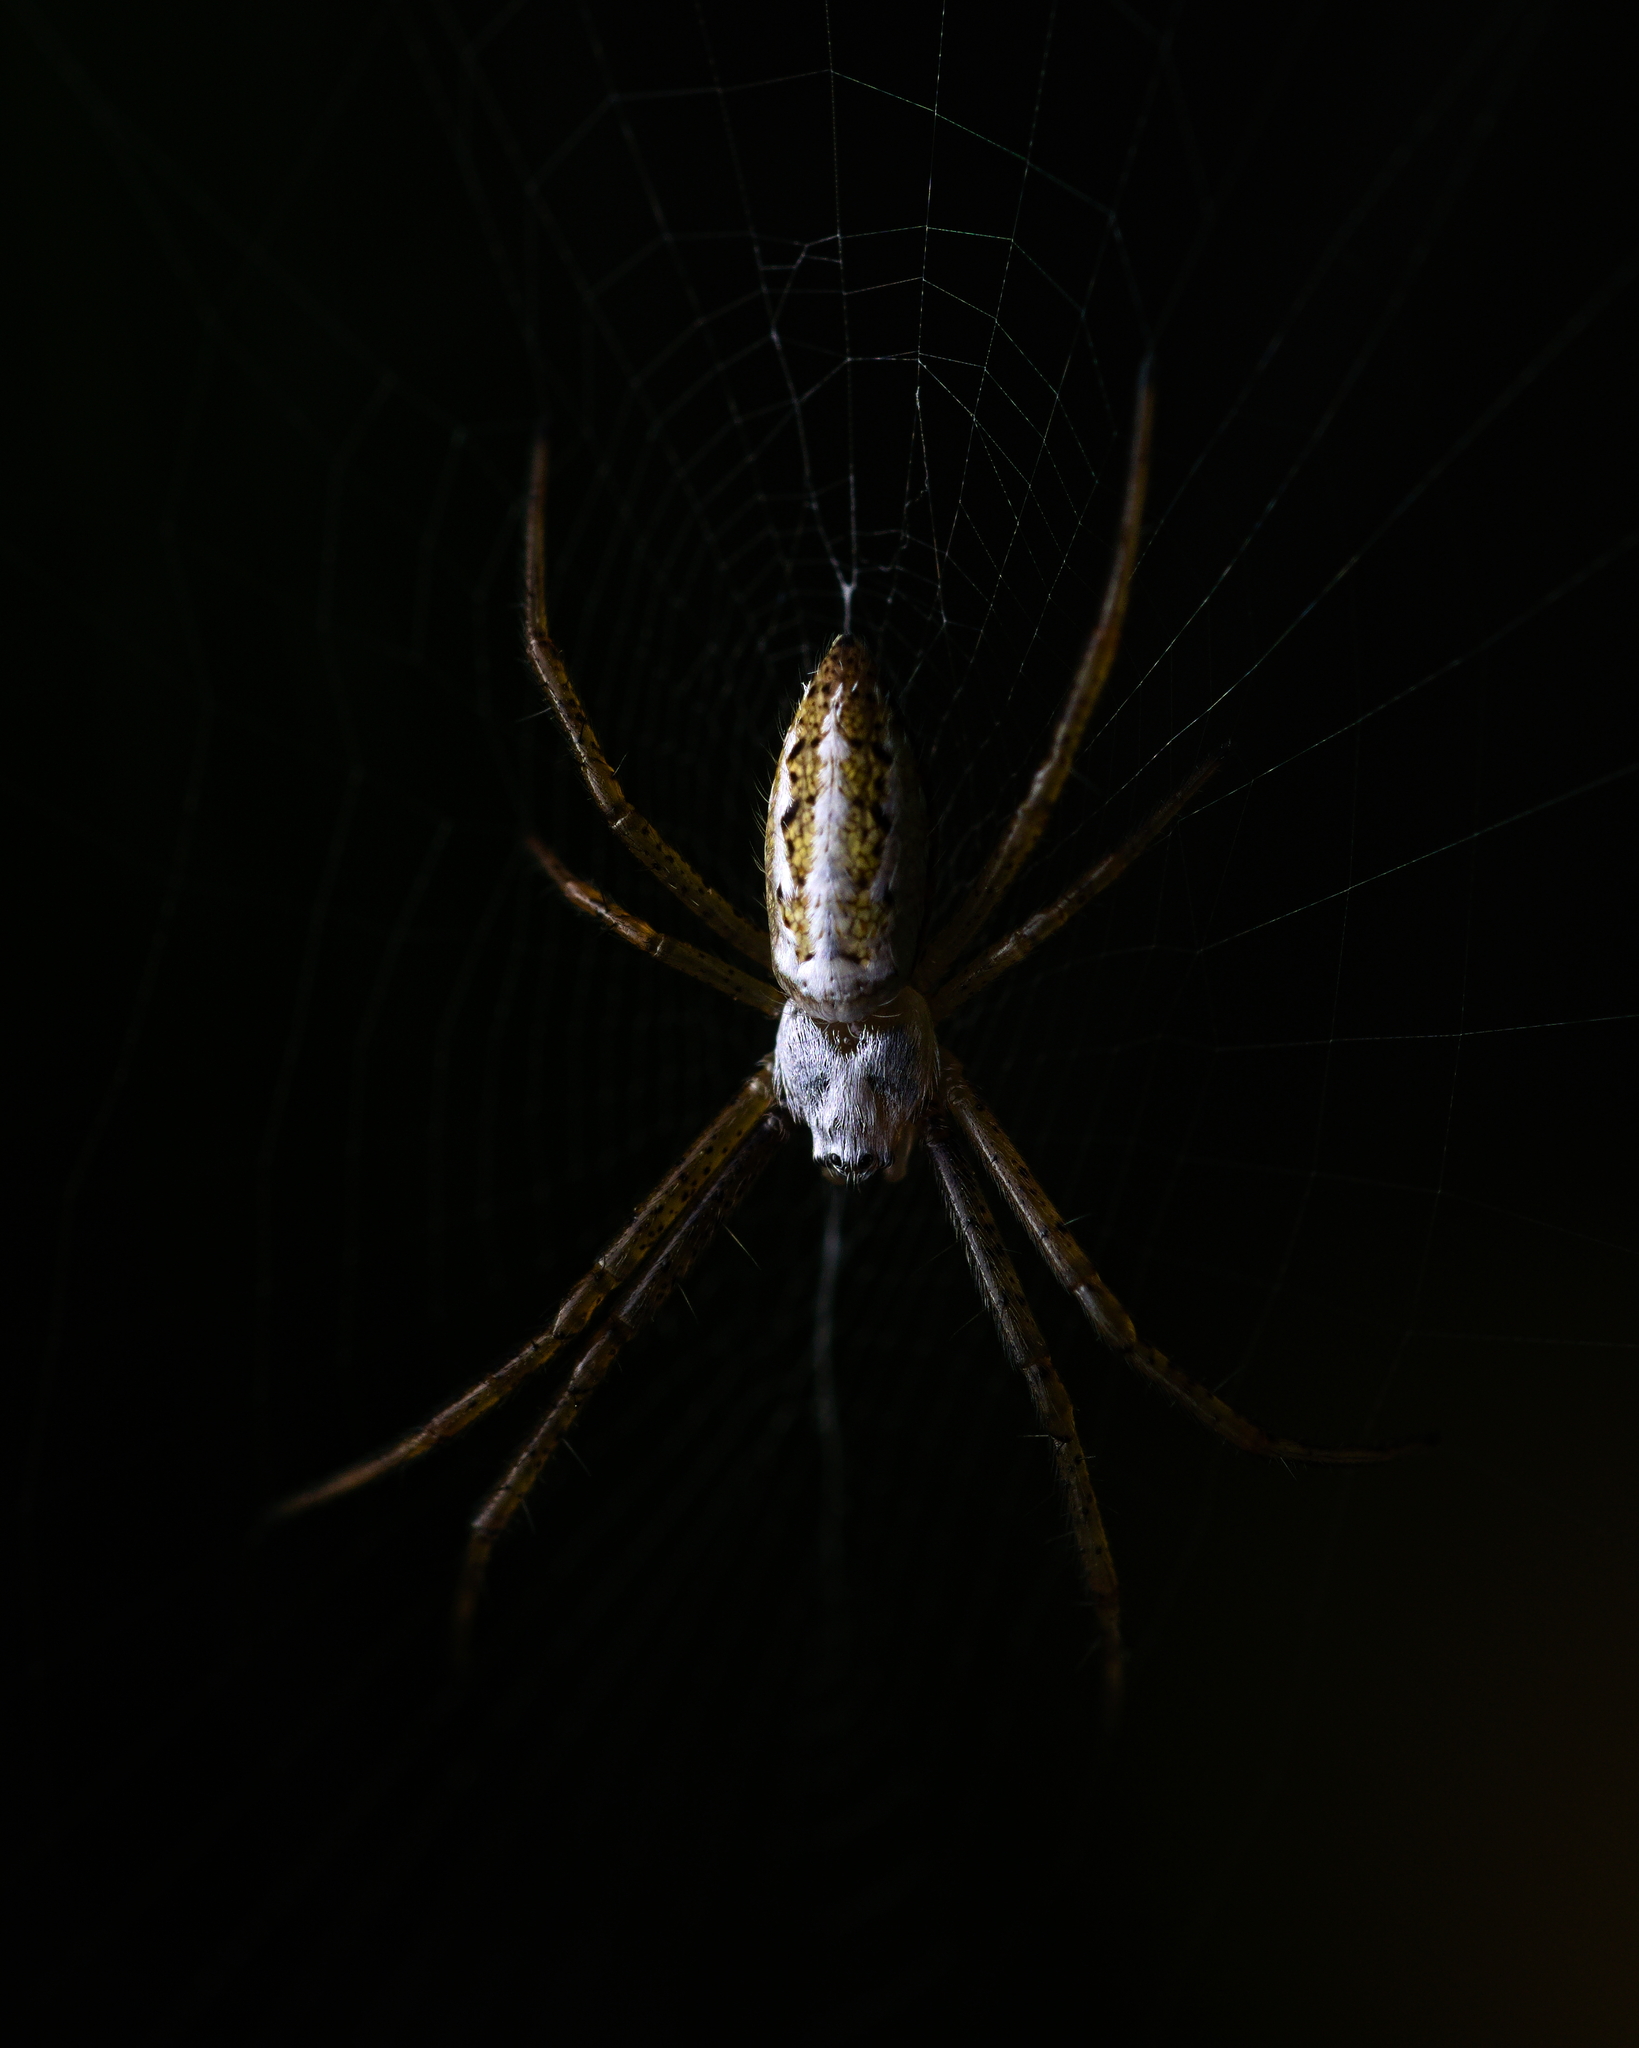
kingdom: Animalia
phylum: Arthropoda
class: Arachnida
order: Araneae
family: Araneidae
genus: Argiope
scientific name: Argiope trifasciata
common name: Banded garden spider
